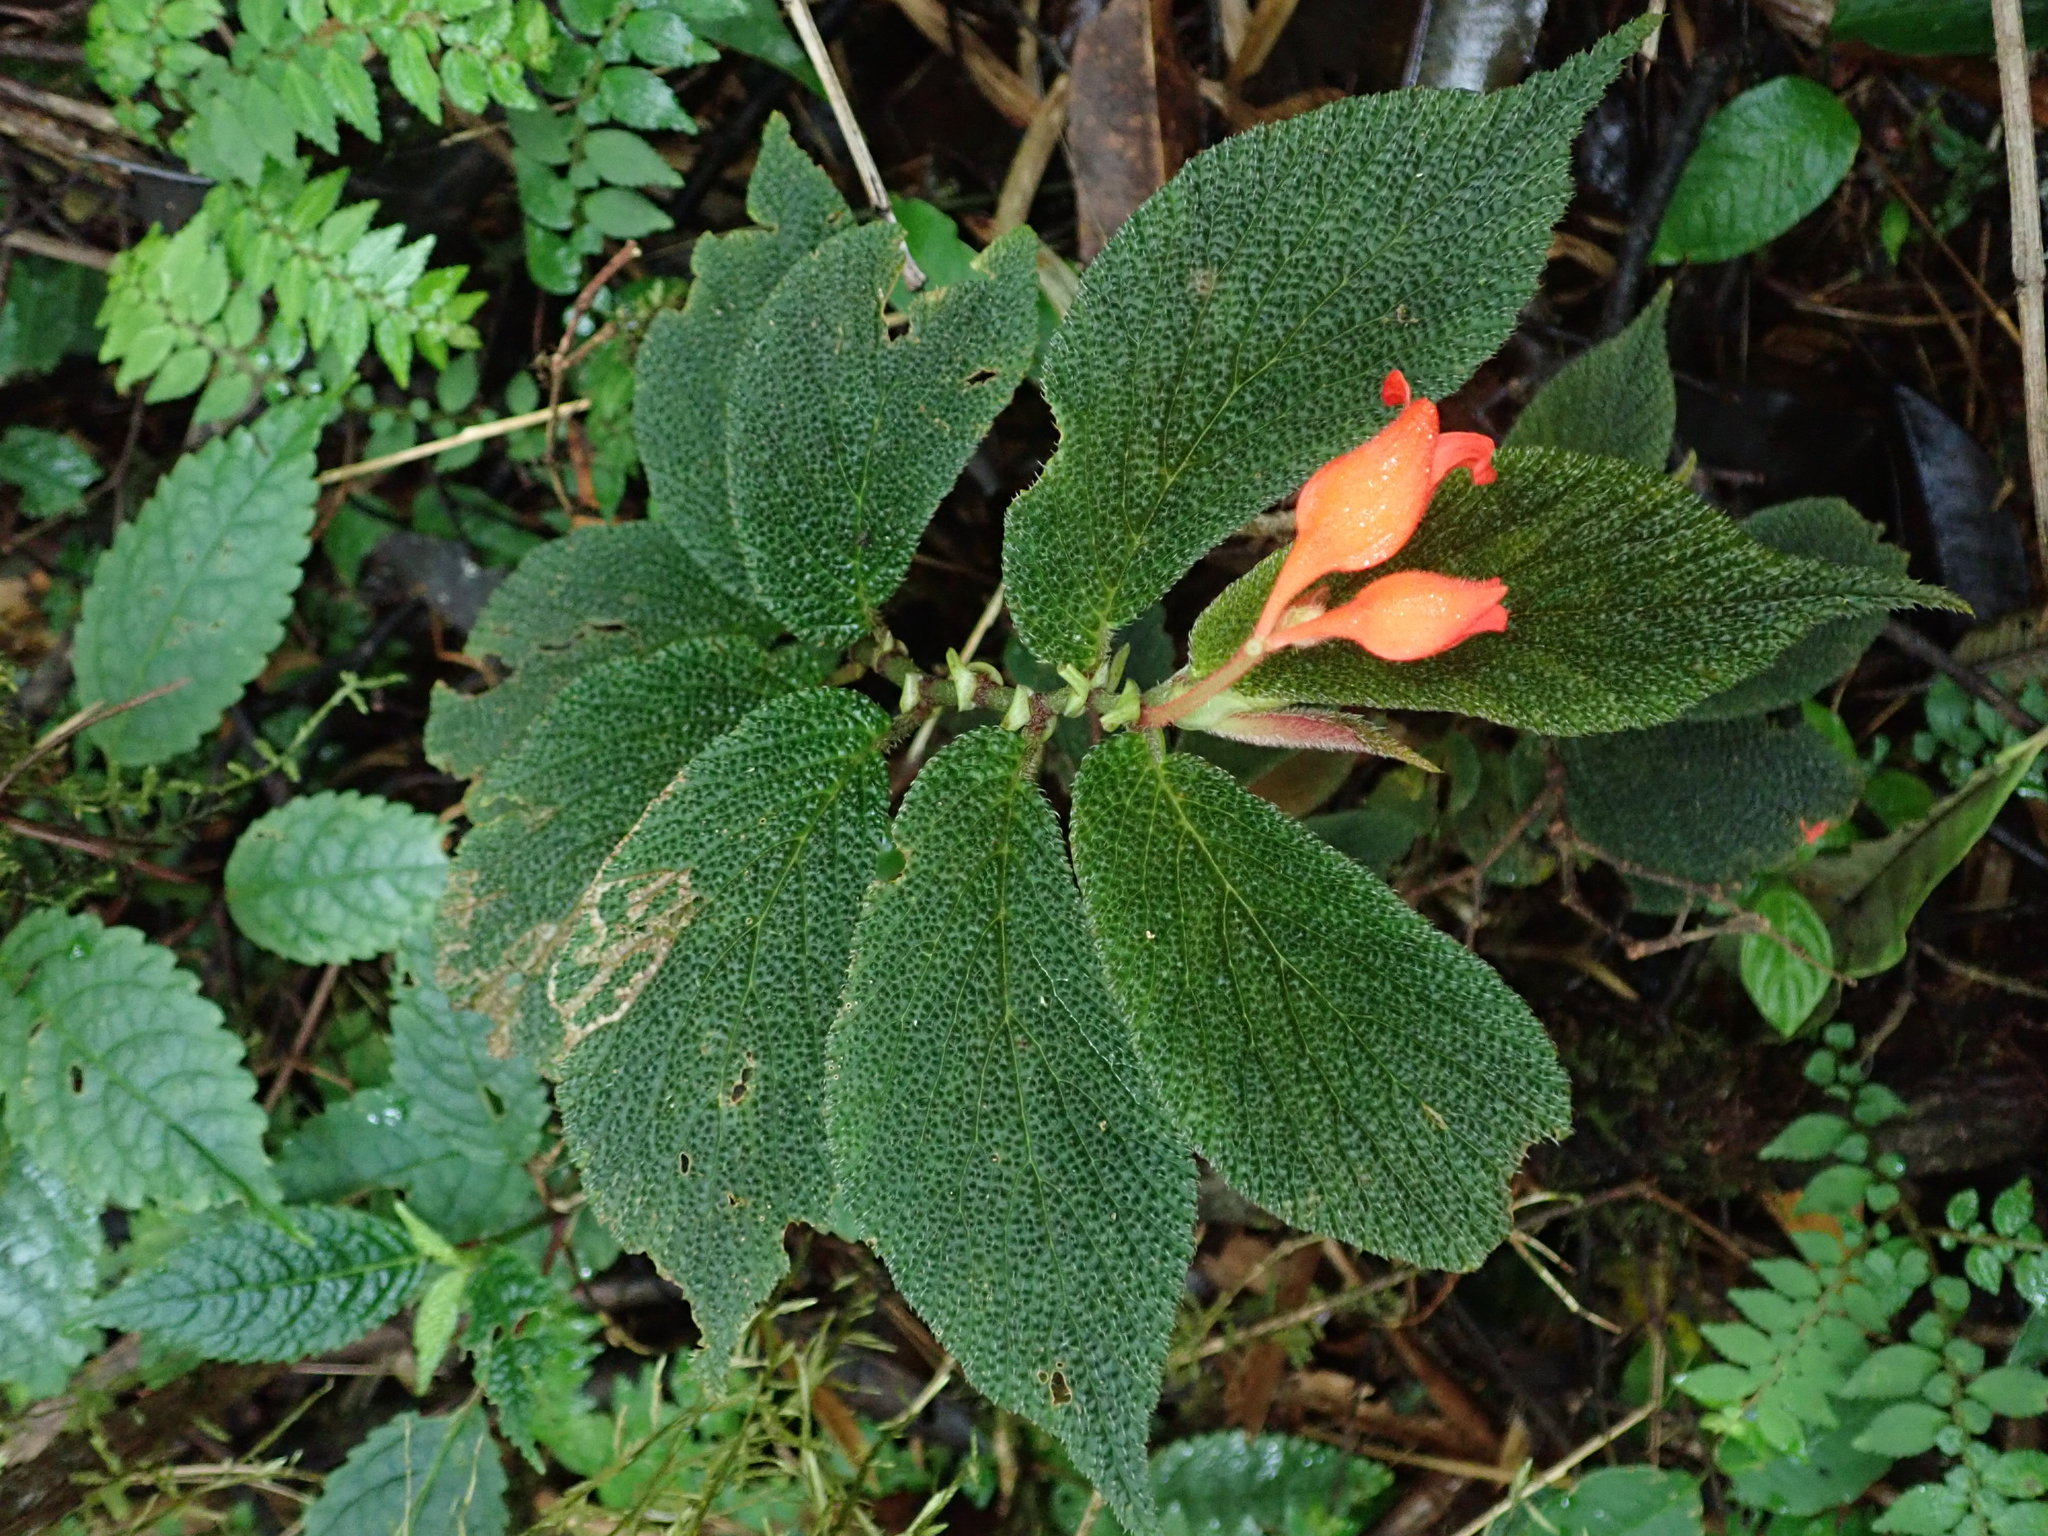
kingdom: Plantae
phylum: Tracheophyta
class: Magnoliopsida
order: Cucurbitales
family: Begoniaceae
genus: Begonia
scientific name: Begonia pectennervia
